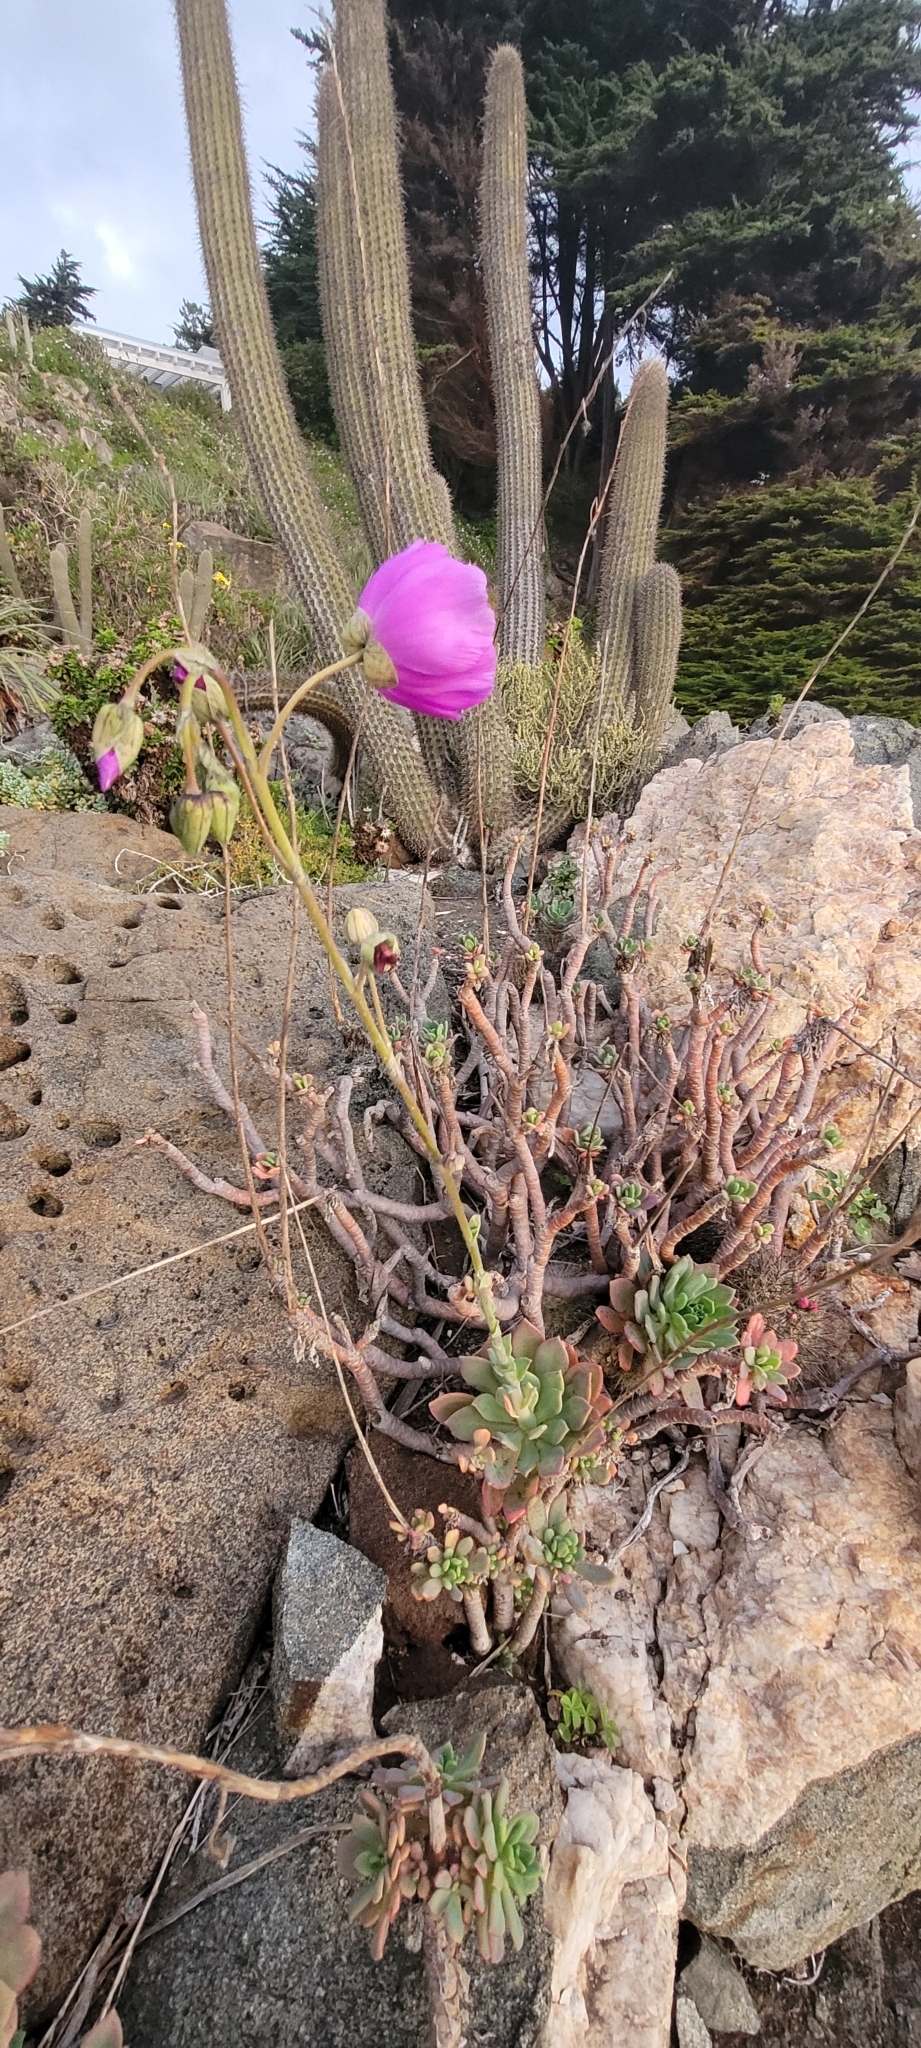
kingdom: Plantae
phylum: Tracheophyta
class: Magnoliopsida
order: Caryophyllales
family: Montiaceae
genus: Cistanthe
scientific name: Cistanthe grandiflora
